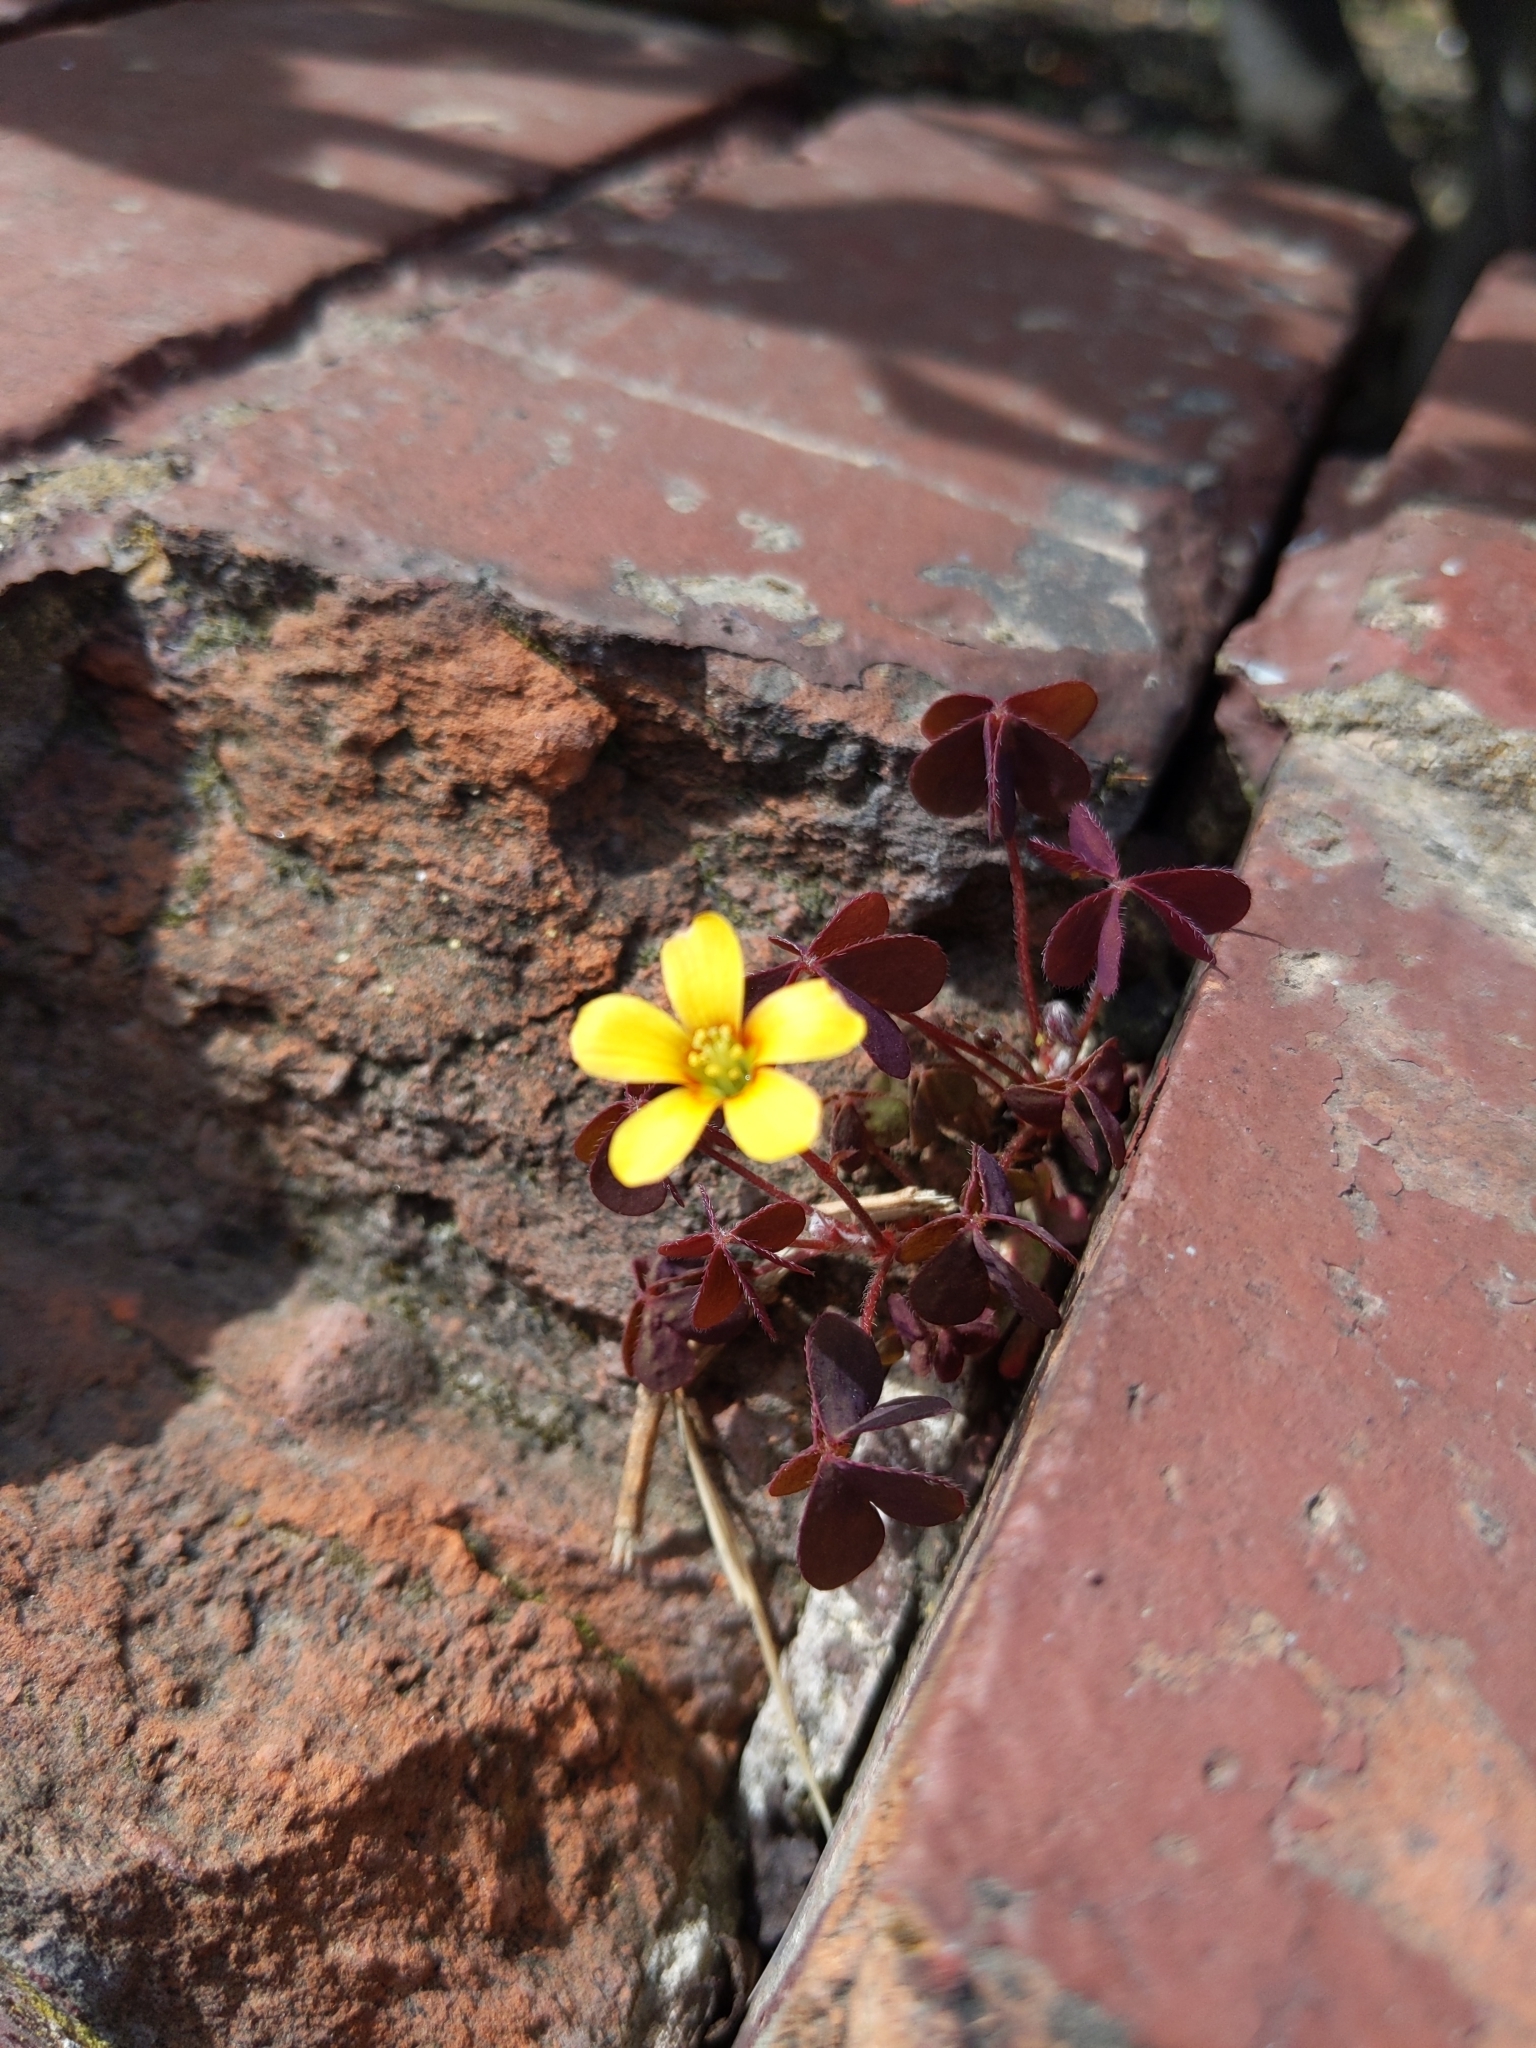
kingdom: Plantae
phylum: Tracheophyta
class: Magnoliopsida
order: Oxalidales
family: Oxalidaceae
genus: Oxalis
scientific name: Oxalis corniculata
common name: Procumbent yellow-sorrel
